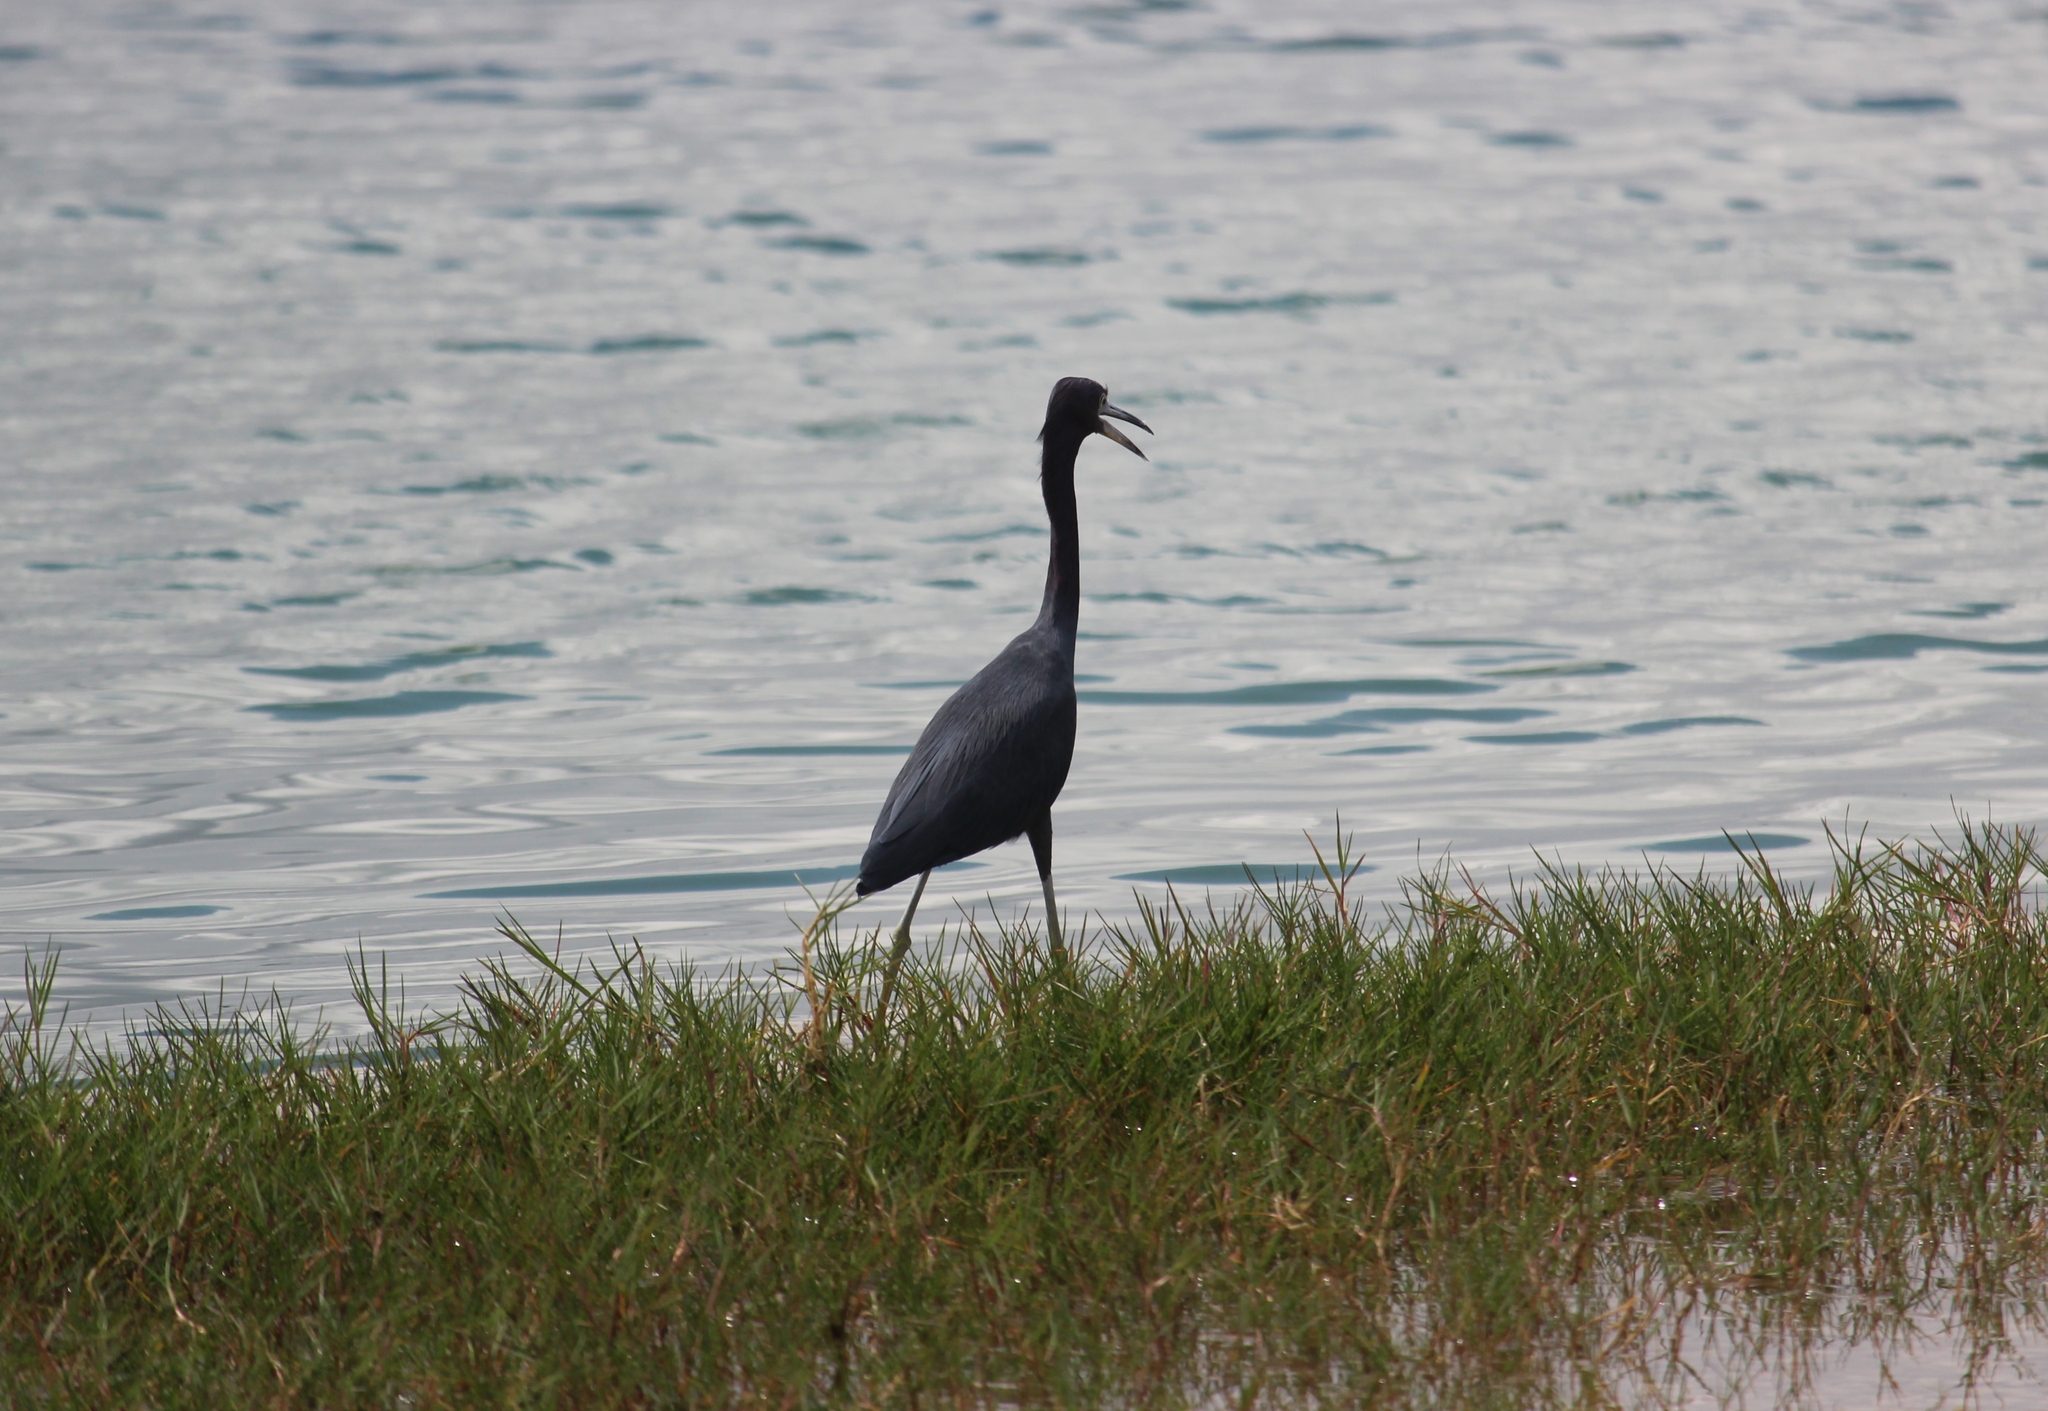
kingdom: Animalia
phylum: Chordata
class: Aves
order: Pelecaniformes
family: Ardeidae
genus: Egretta
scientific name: Egretta caerulea
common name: Little blue heron
